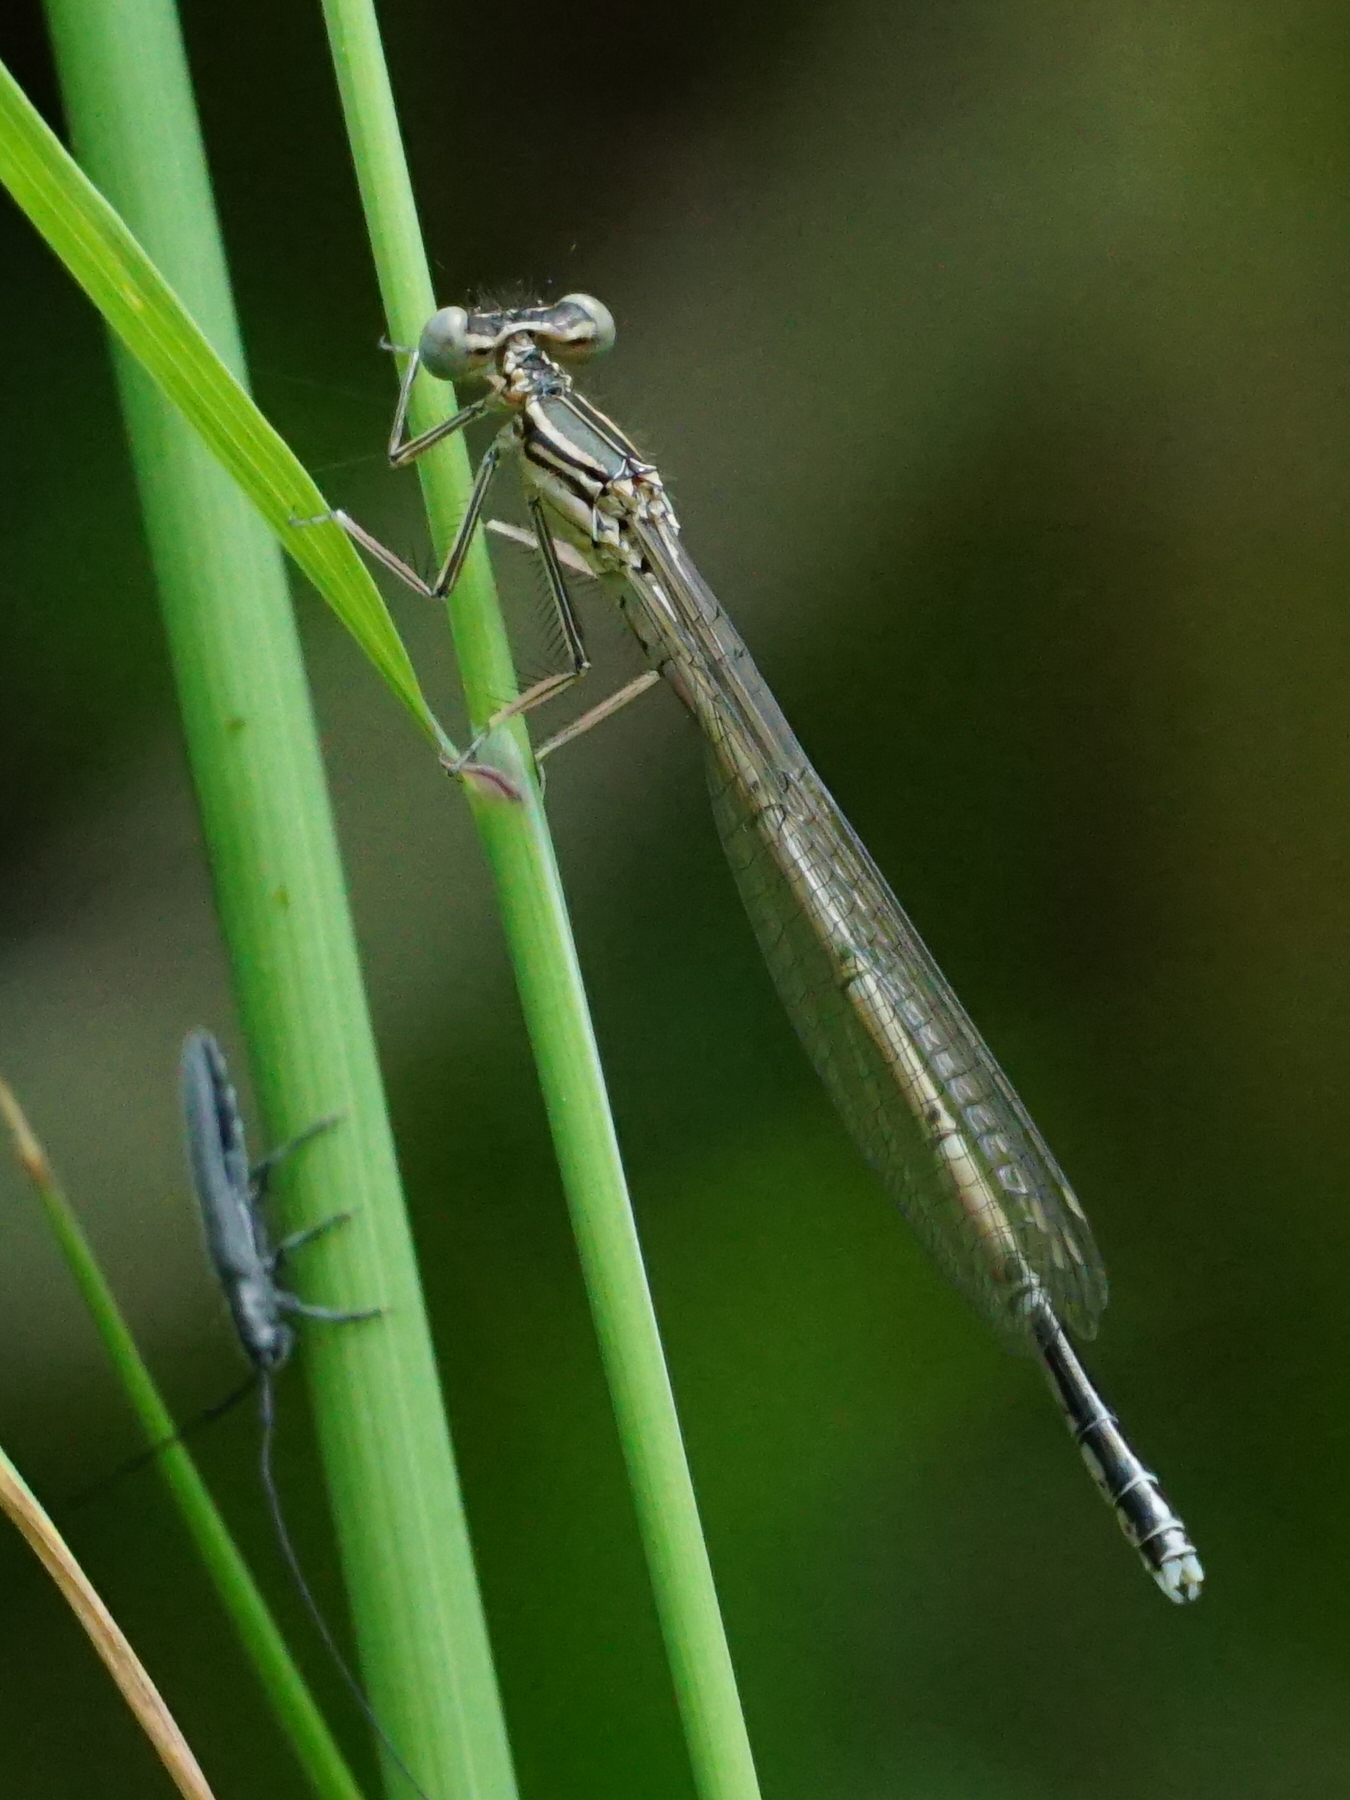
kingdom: Animalia
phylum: Arthropoda
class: Insecta
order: Odonata
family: Platycnemididae
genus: Platycnemis
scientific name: Platycnemis pennipes
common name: White-legged damselfly
